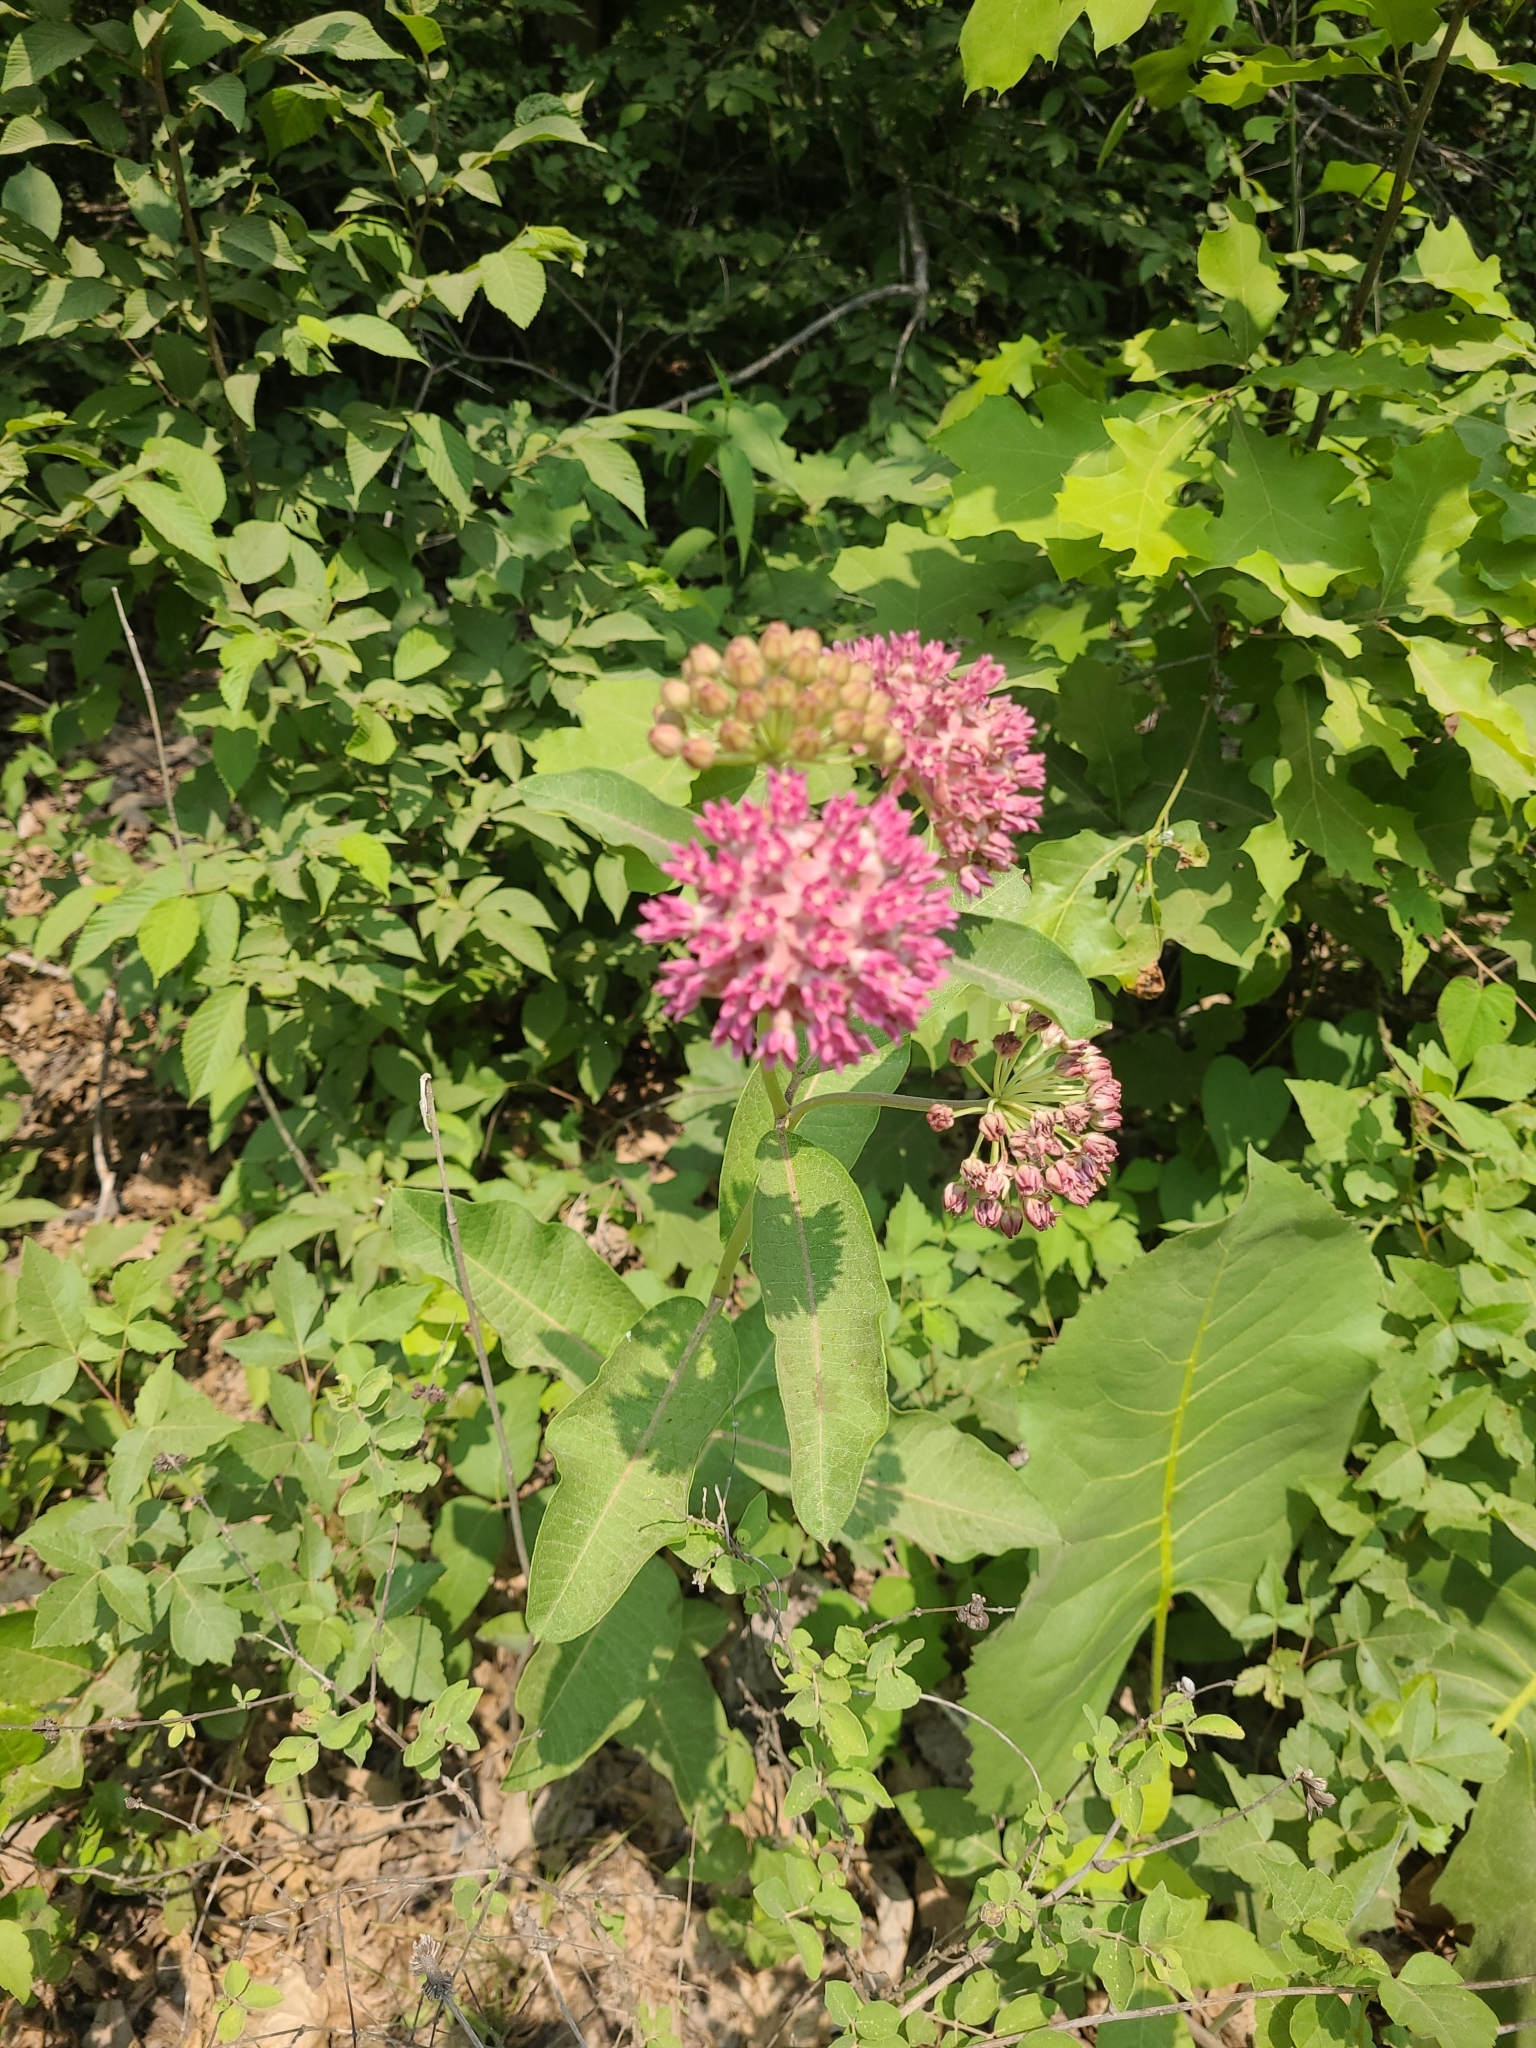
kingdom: Plantae
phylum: Tracheophyta
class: Magnoliopsida
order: Gentianales
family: Apocynaceae
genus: Asclepias
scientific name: Asclepias purpurascens
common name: Purple milkweed
